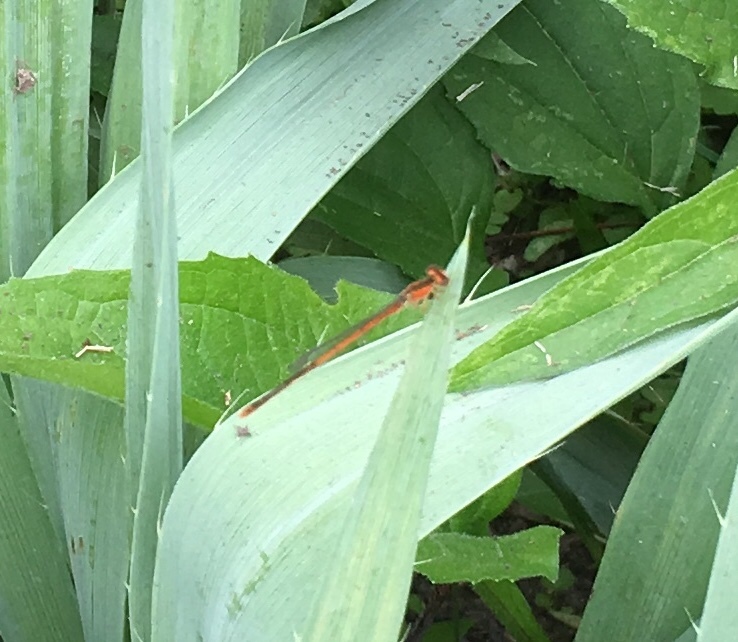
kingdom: Animalia
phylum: Arthropoda
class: Insecta
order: Odonata
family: Coenagrionidae
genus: Ischnura
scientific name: Ischnura hastata
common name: Citrine forktail
